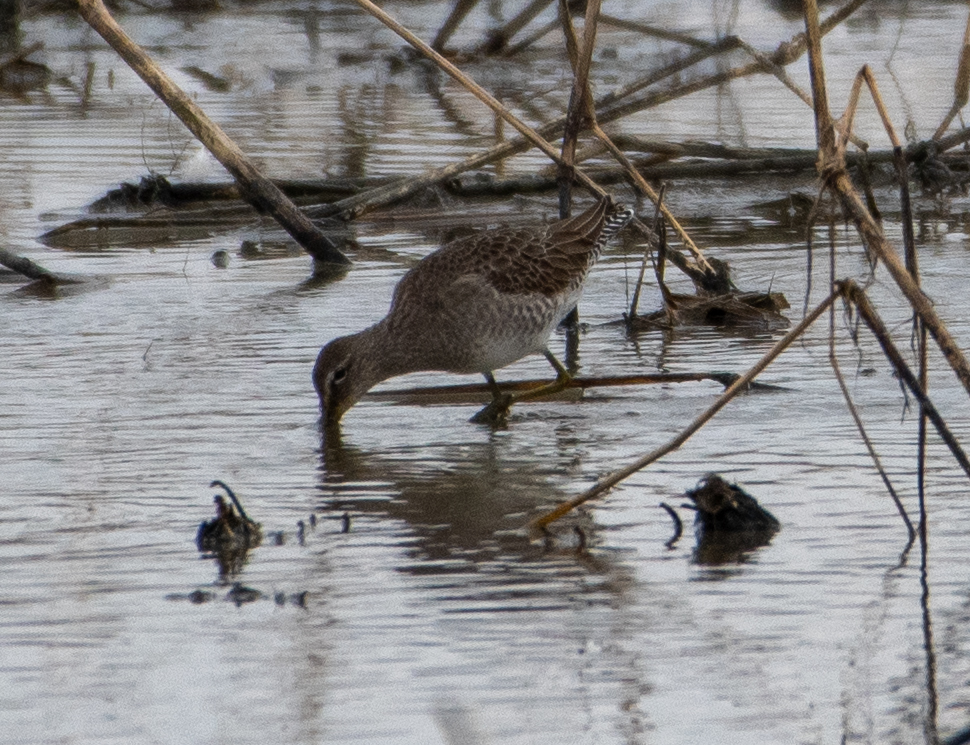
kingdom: Animalia
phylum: Chordata
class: Aves
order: Charadriiformes
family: Scolopacidae
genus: Limnodromus
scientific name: Limnodromus scolopaceus
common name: Long-billed dowitcher
